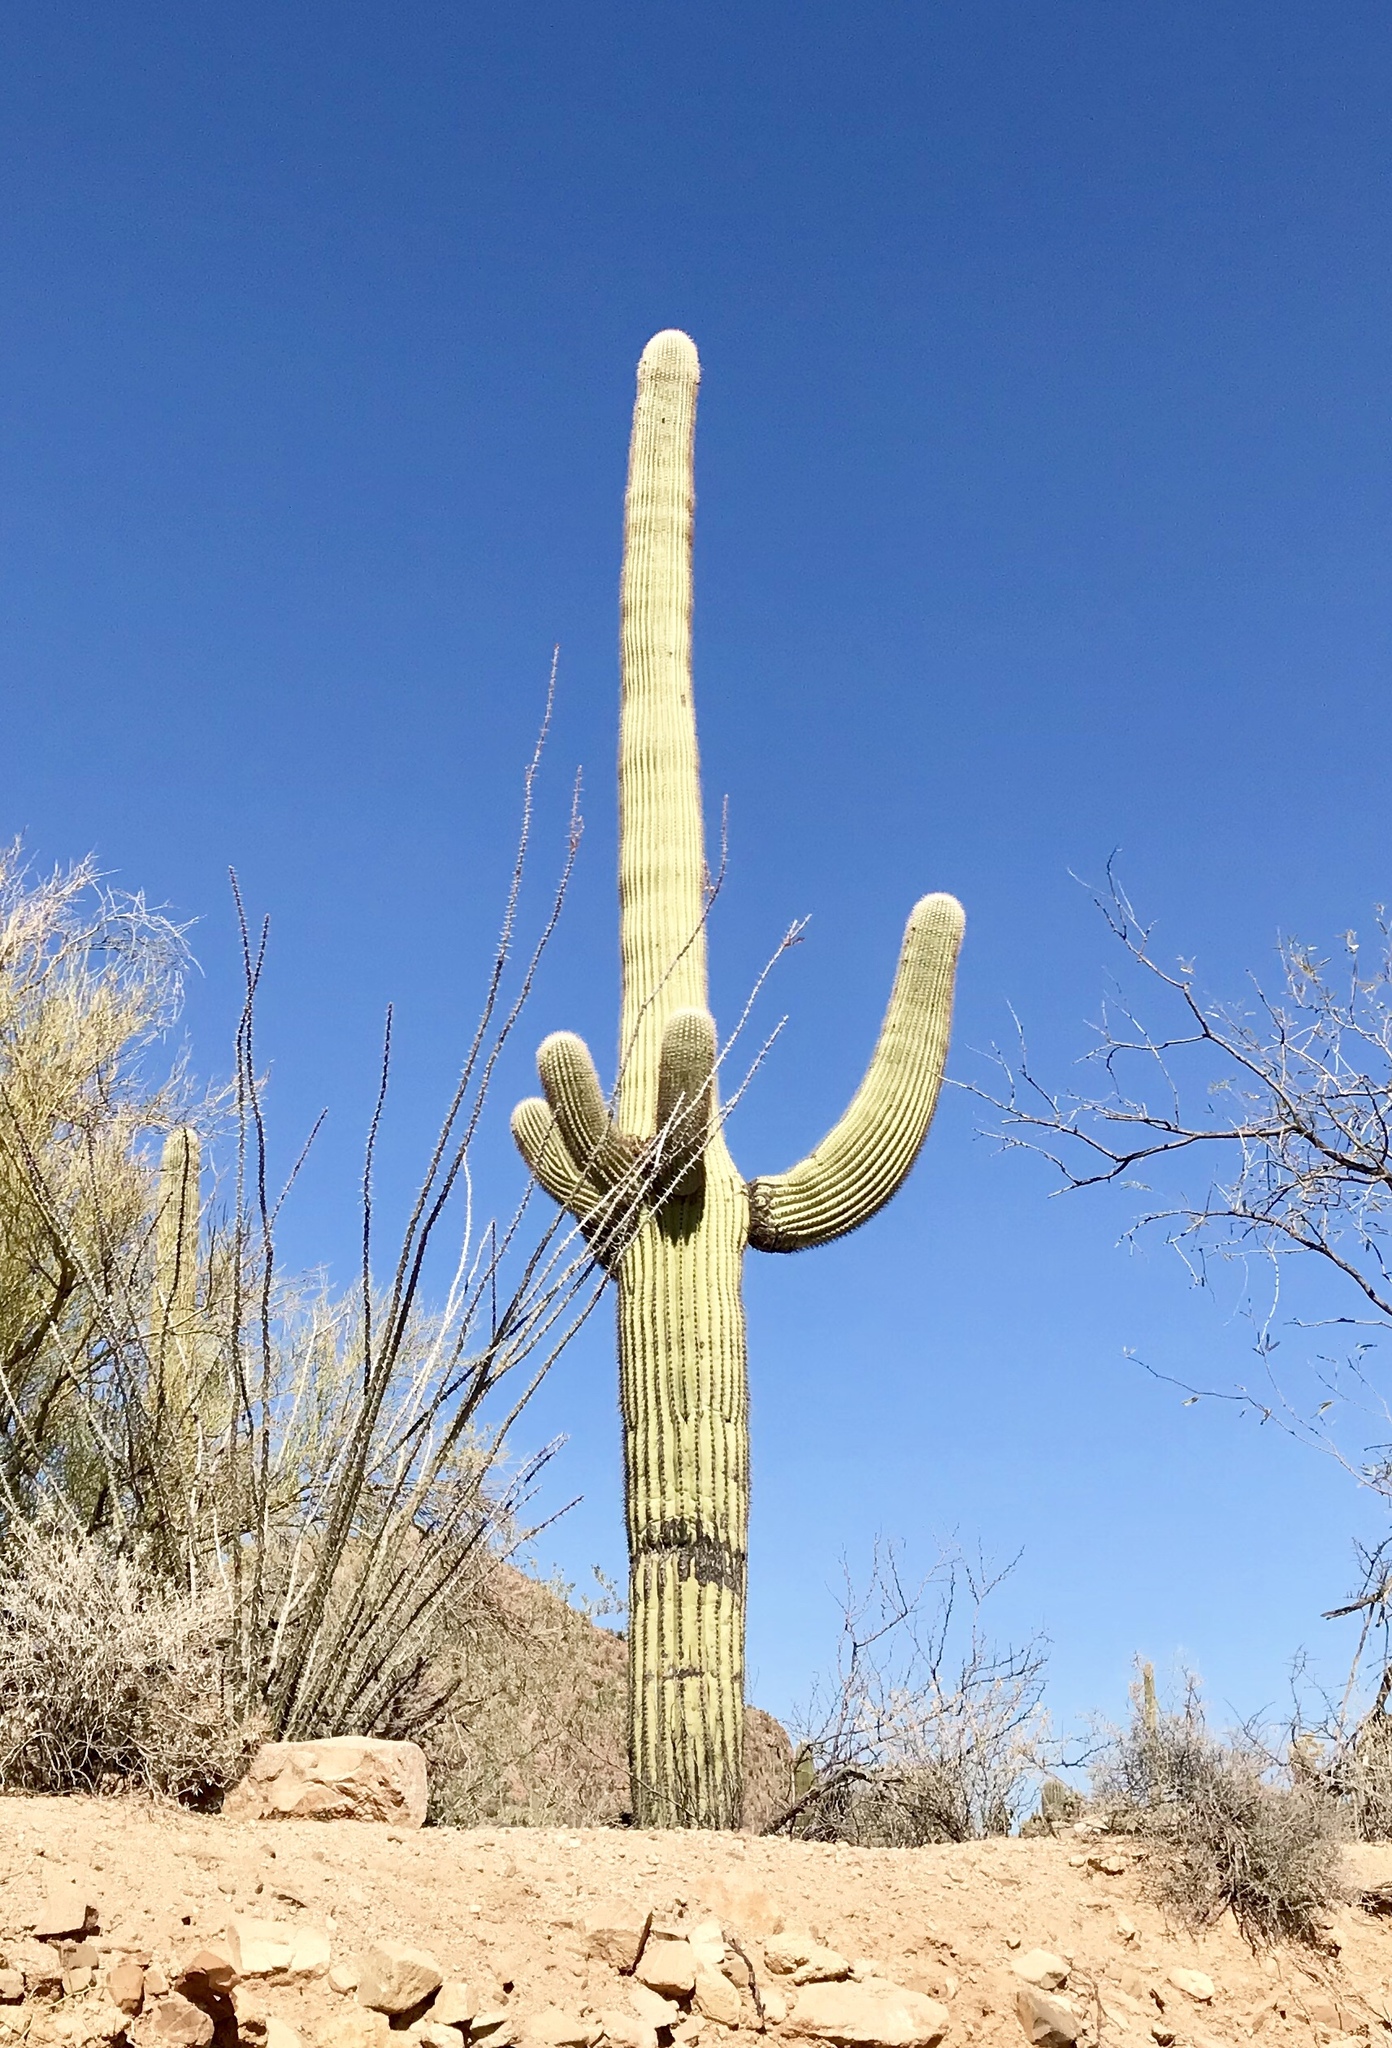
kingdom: Plantae
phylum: Tracheophyta
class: Magnoliopsida
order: Caryophyllales
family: Cactaceae
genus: Carnegiea
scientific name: Carnegiea gigantea
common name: Saguaro
